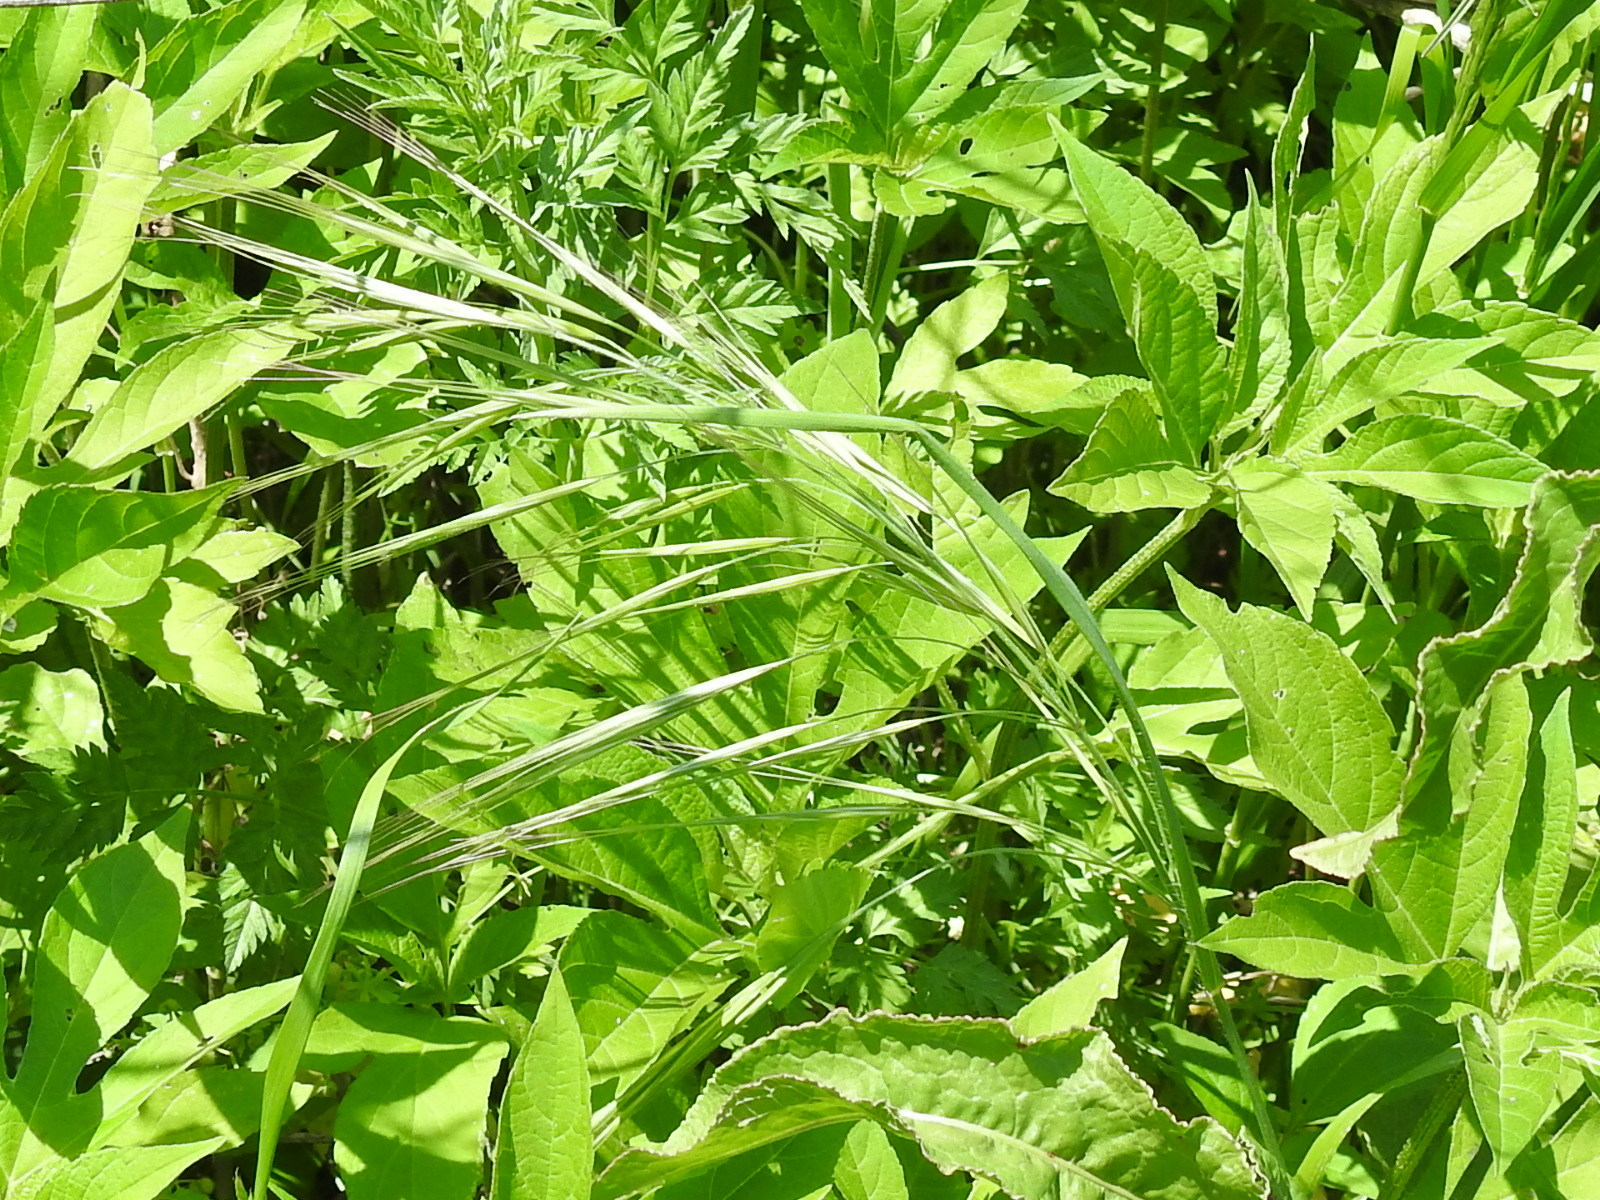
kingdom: Plantae
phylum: Tracheophyta
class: Liliopsida
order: Poales
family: Poaceae
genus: Bromus
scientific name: Bromus rigidus
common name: Ripgut brome
